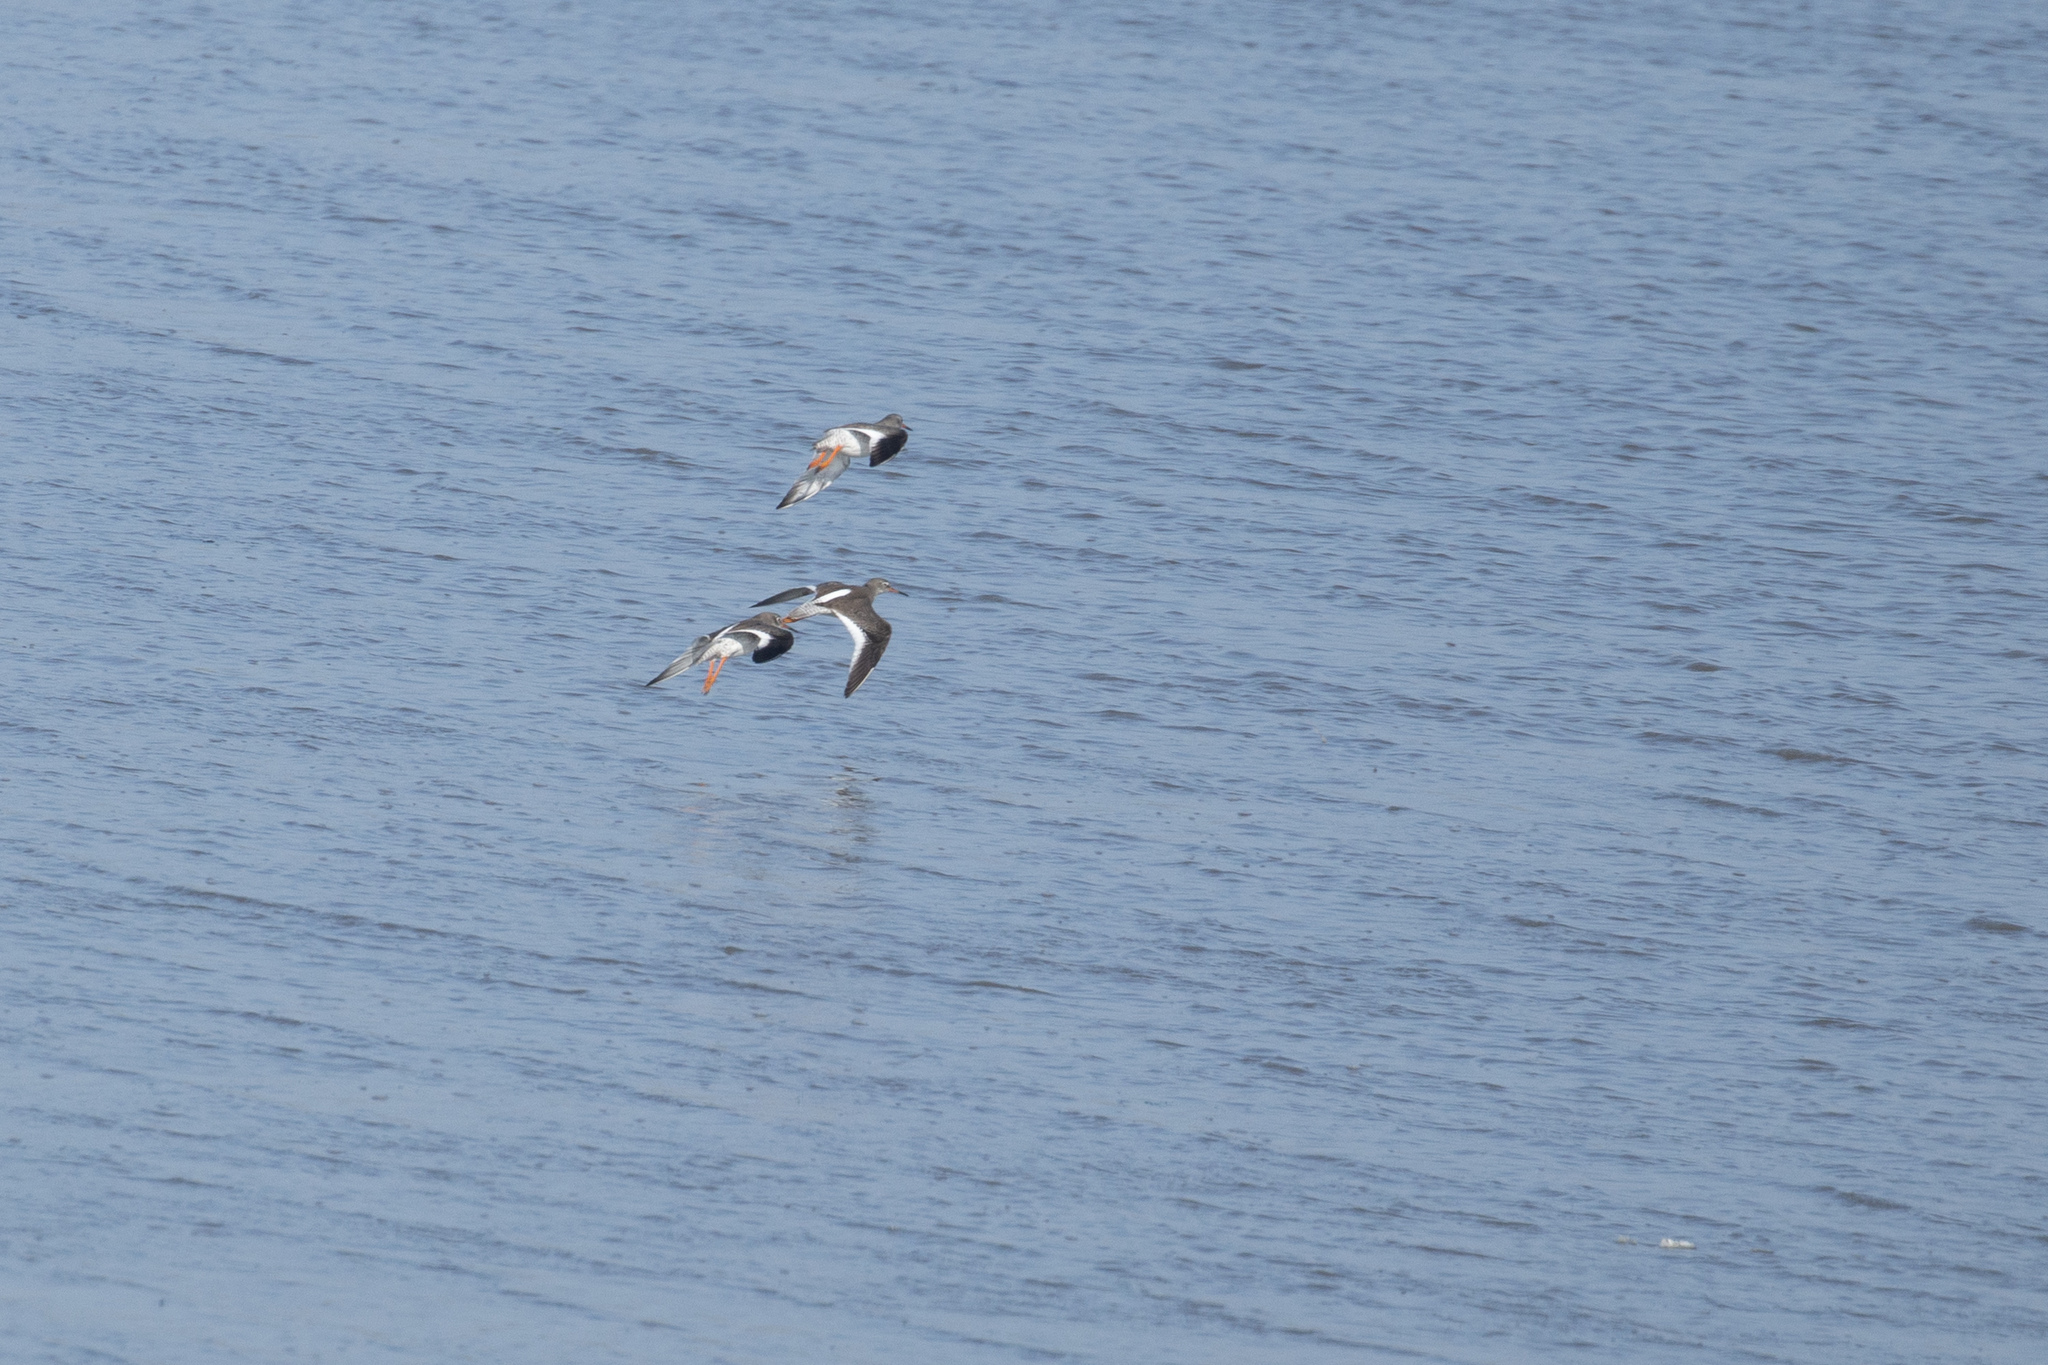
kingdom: Animalia
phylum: Chordata
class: Aves
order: Charadriiformes
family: Scolopacidae
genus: Tringa
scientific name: Tringa totanus
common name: Common redshank
